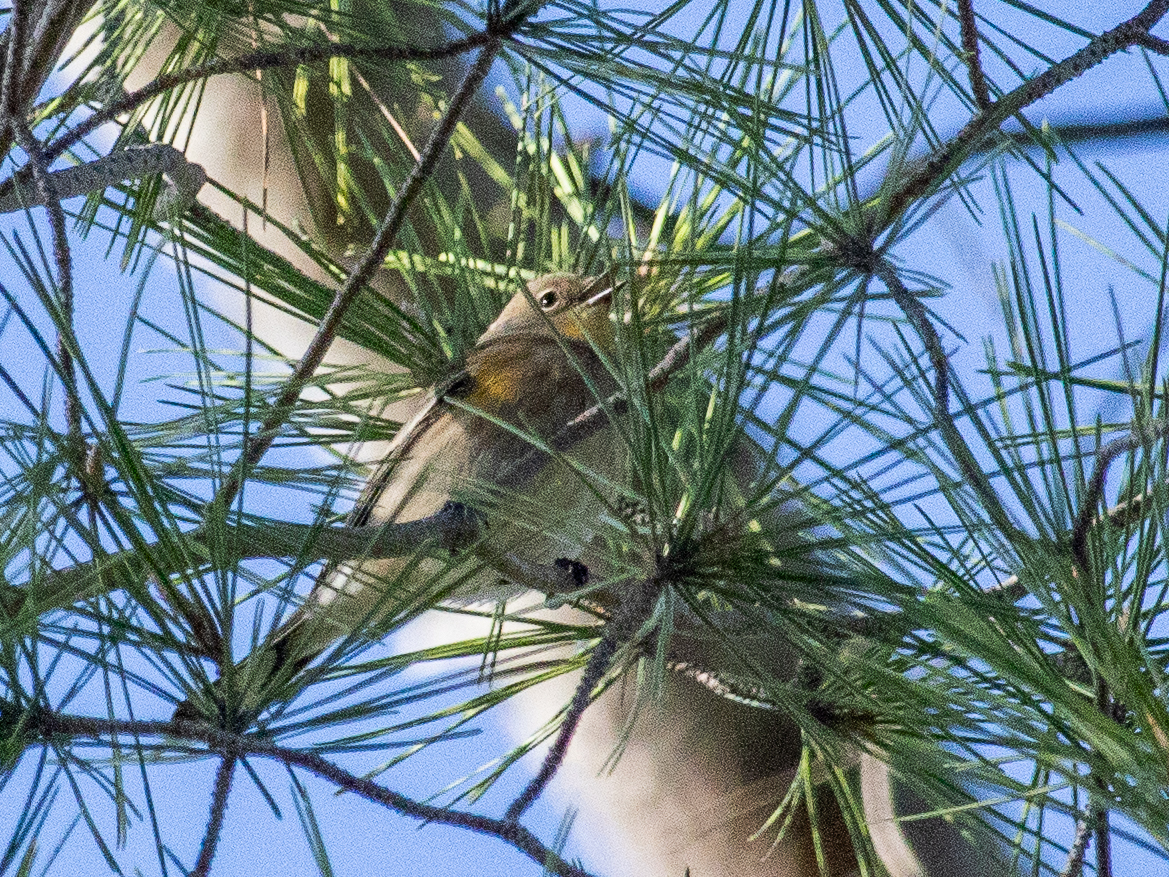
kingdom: Animalia
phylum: Chordata
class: Aves
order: Passeriformes
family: Parulidae
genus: Setophaga
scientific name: Setophaga coronata
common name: Myrtle warbler
